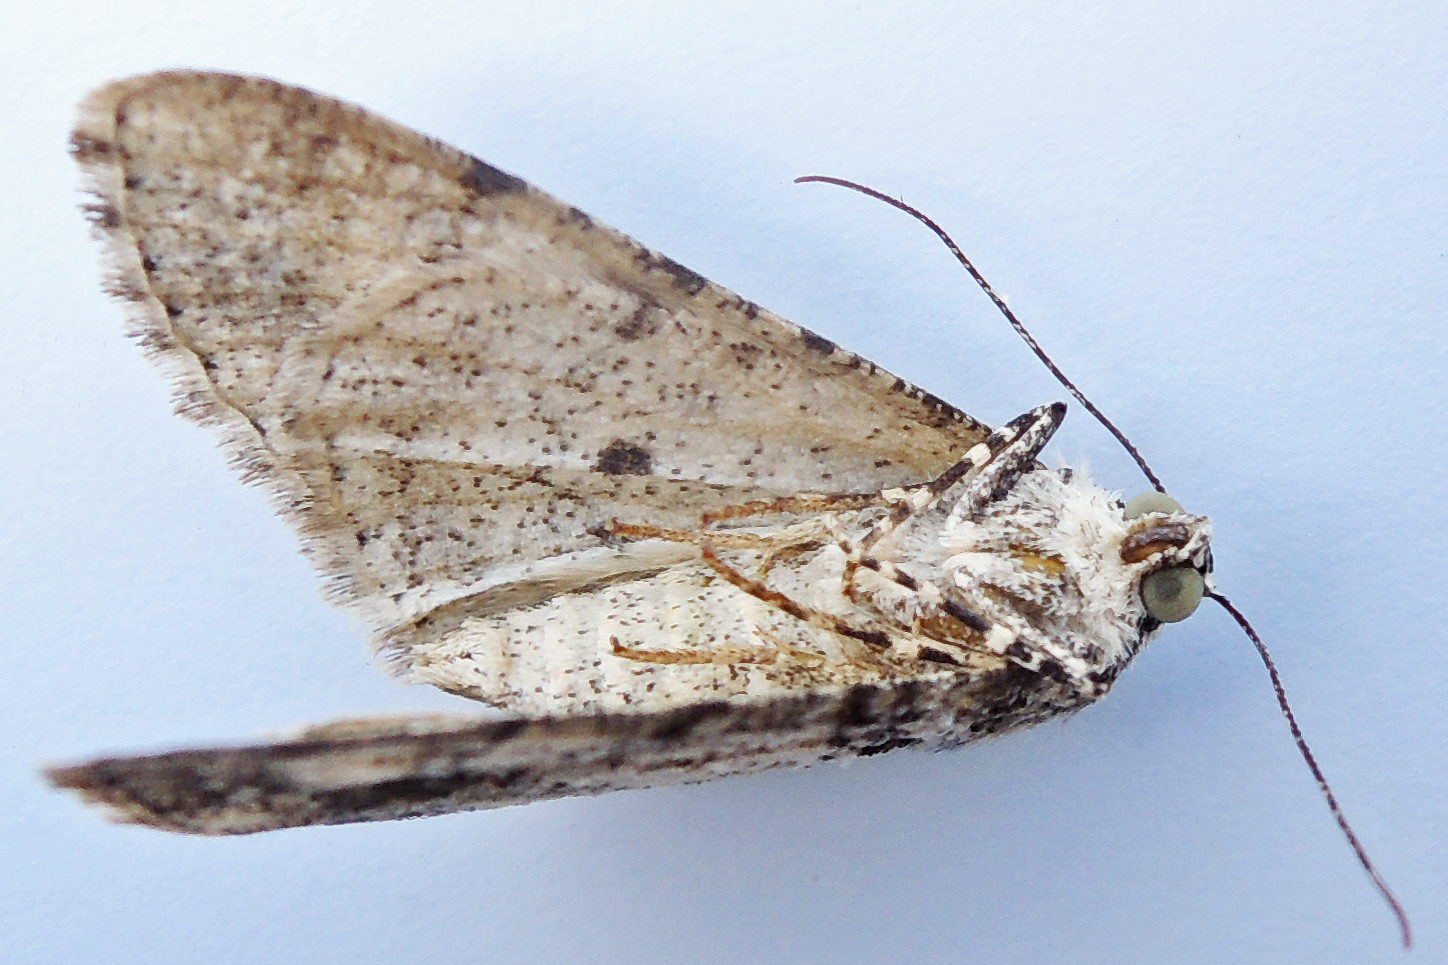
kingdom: Animalia
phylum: Arthropoda
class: Insecta
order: Lepidoptera
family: Geometridae
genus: Cleora
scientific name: Cleora sublunaria
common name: Double-lined gray
